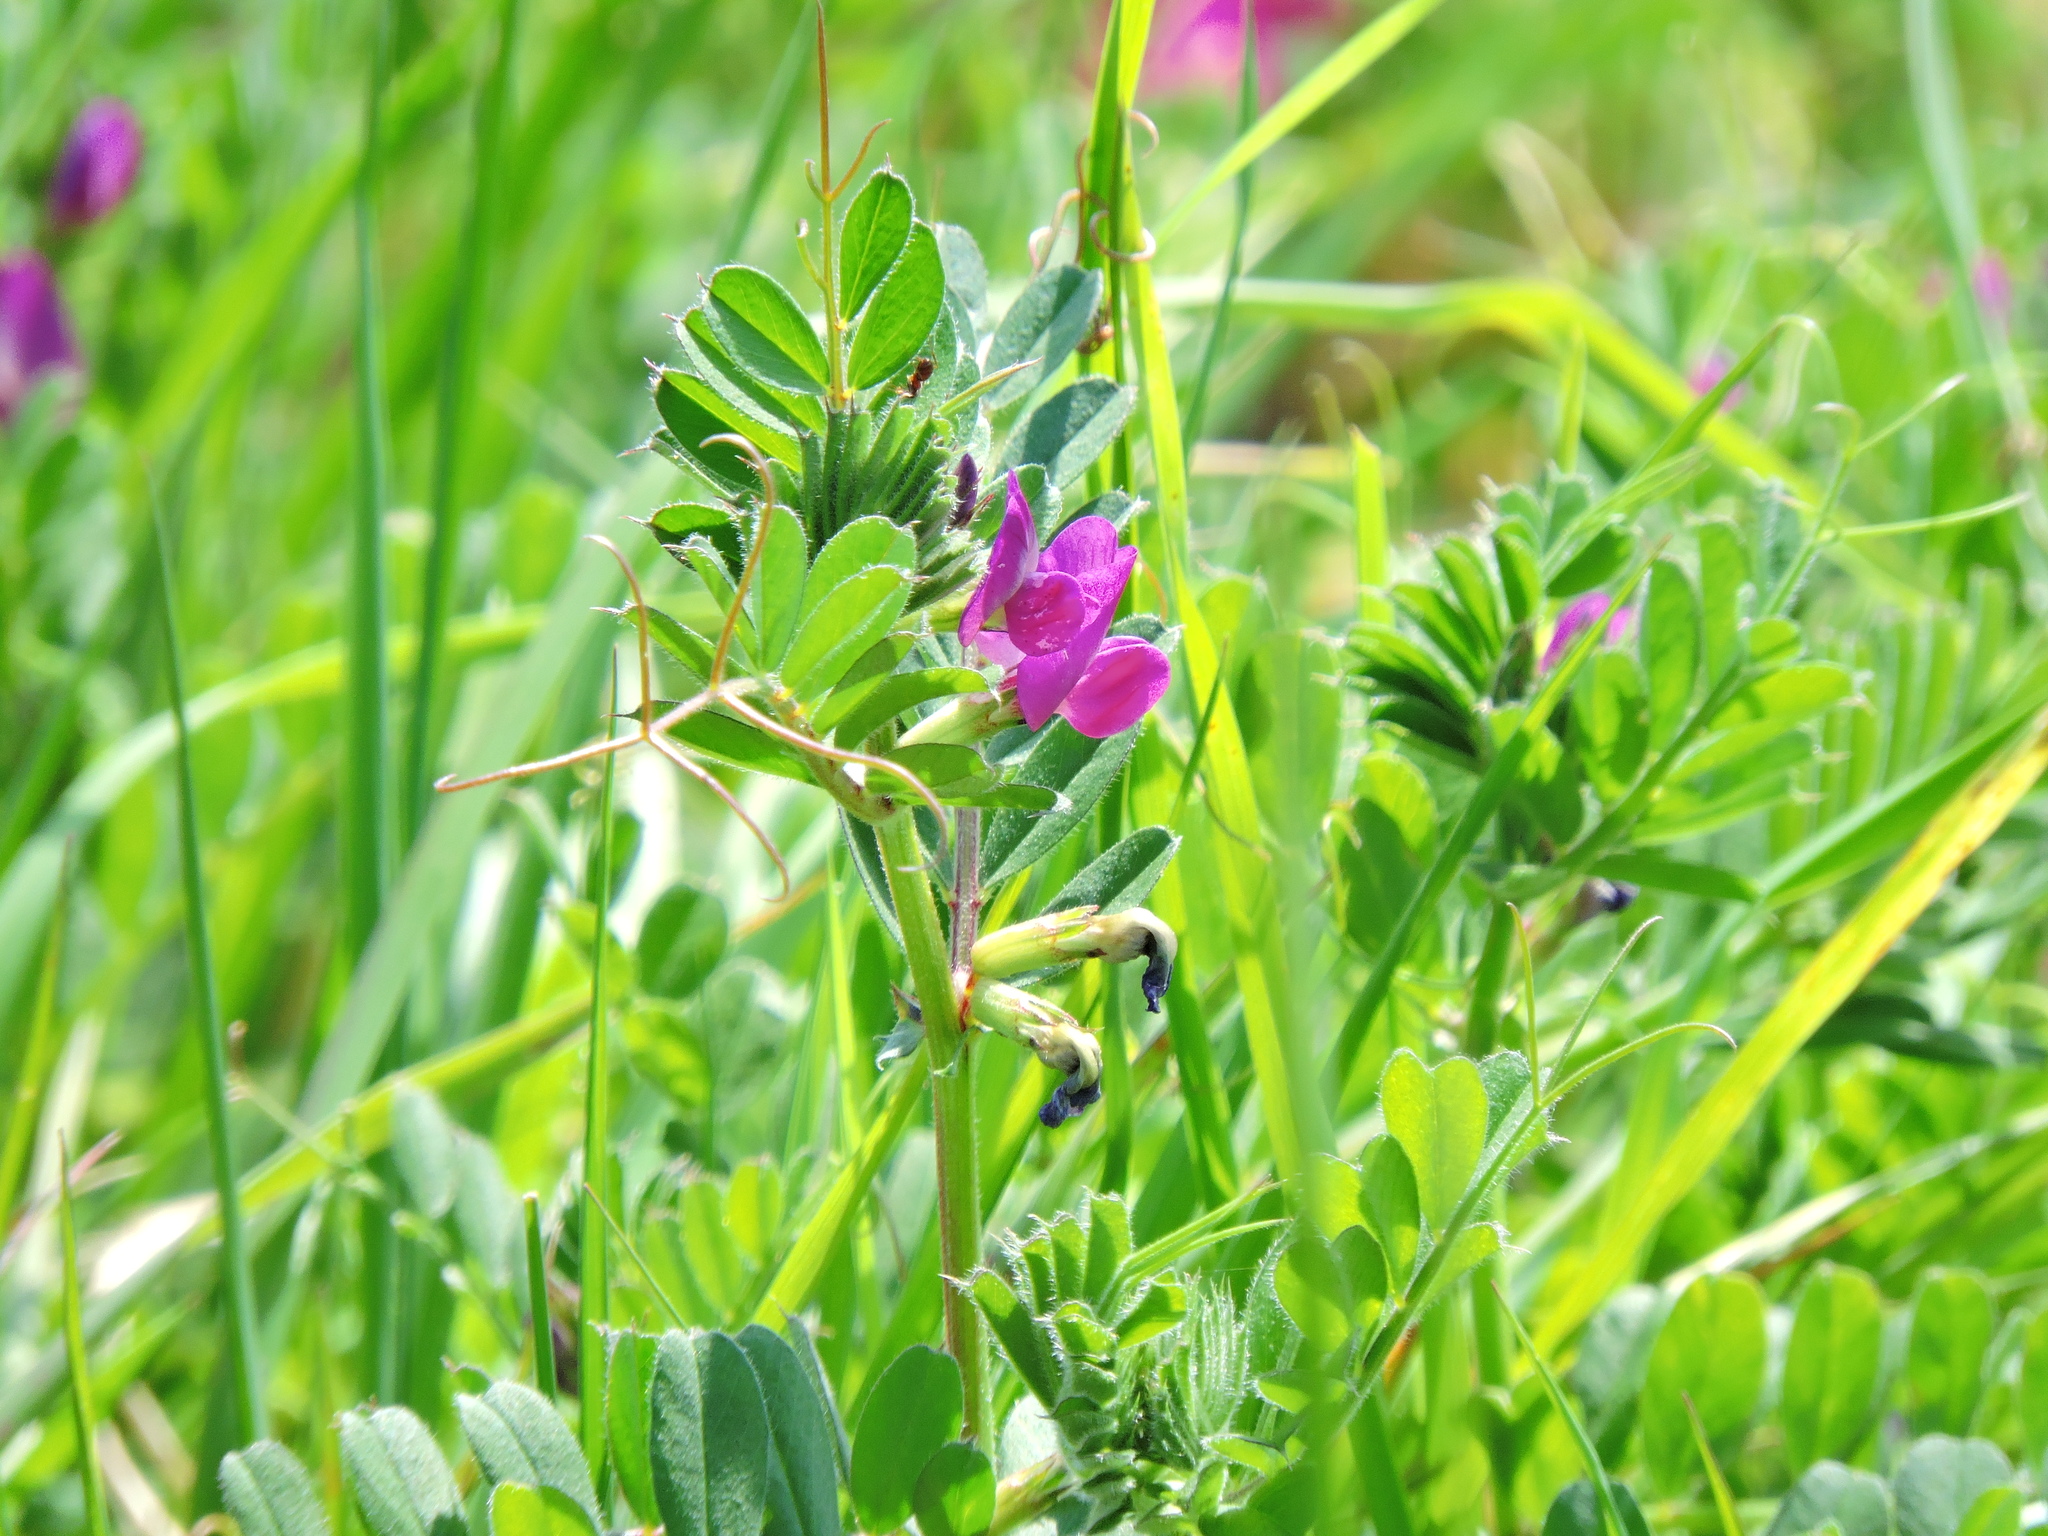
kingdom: Plantae
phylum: Tracheophyta
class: Magnoliopsida
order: Fabales
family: Fabaceae
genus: Vicia
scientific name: Vicia sativa
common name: Garden vetch
